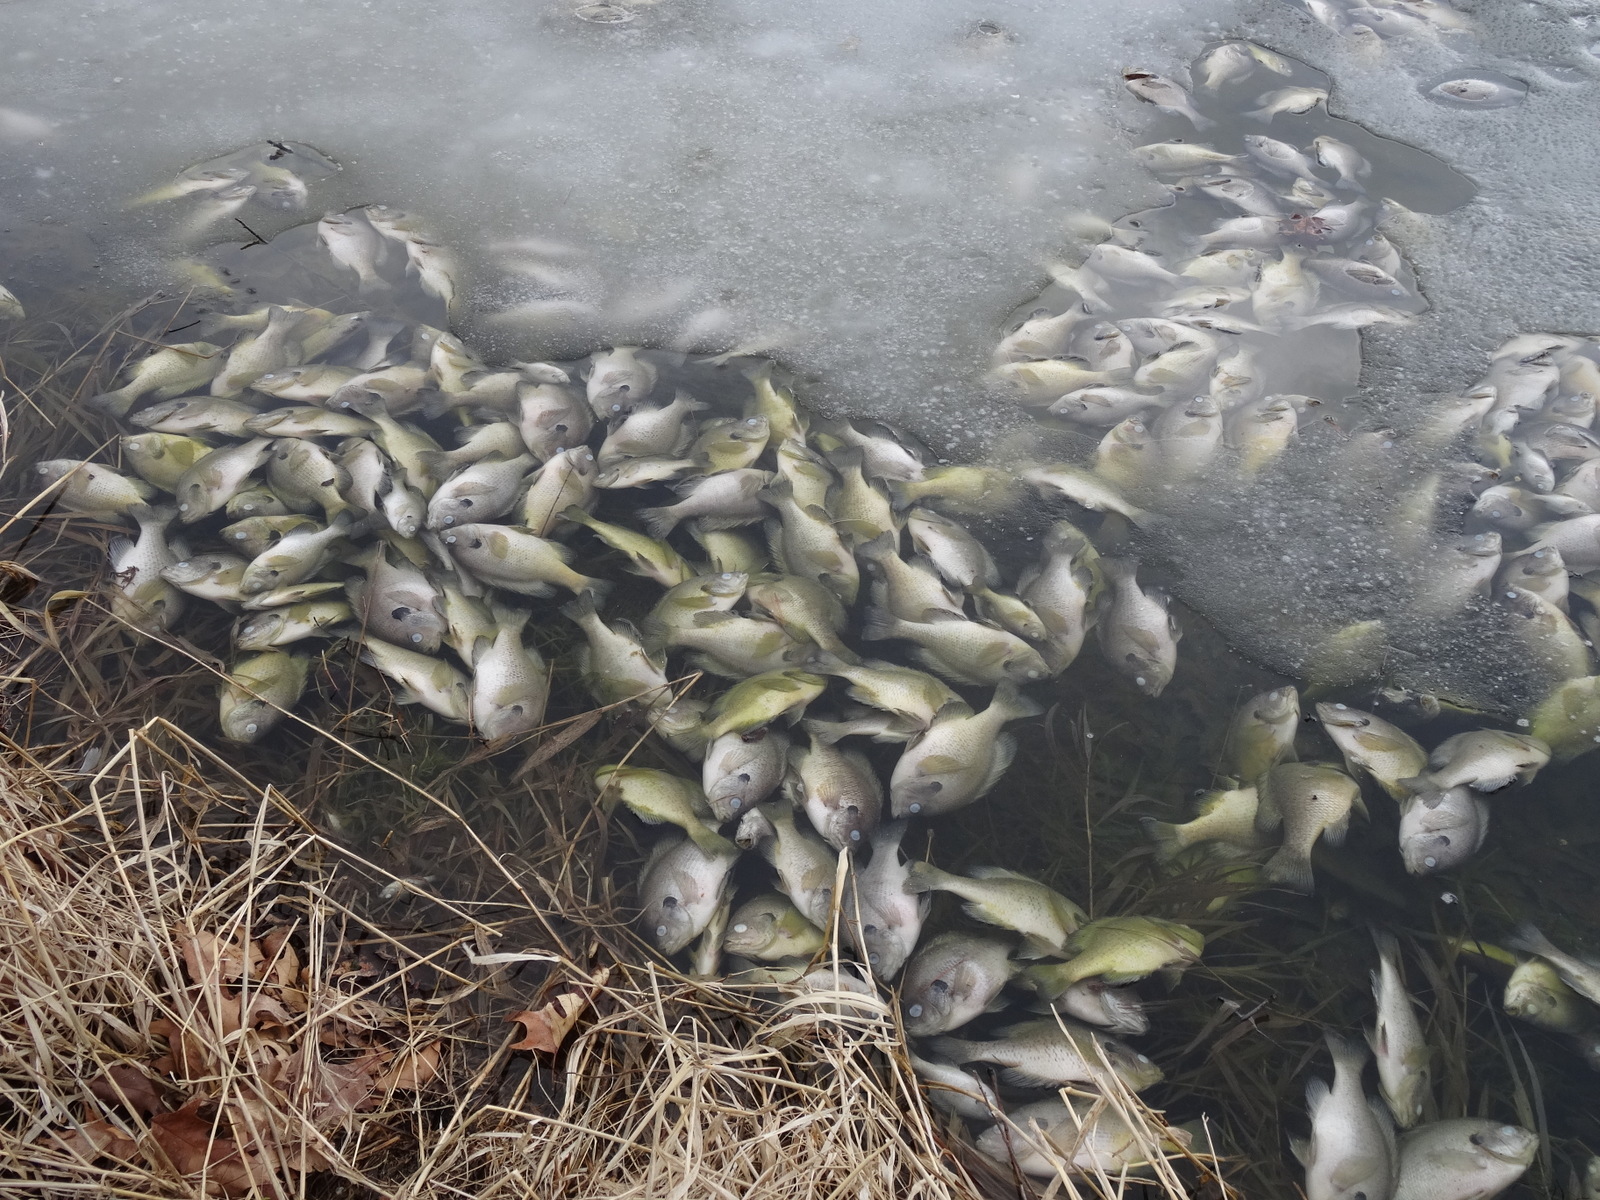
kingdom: Animalia
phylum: Chordata
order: Perciformes
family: Centrarchidae
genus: Lepomis
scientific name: Lepomis macrochirus
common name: Bluegill
